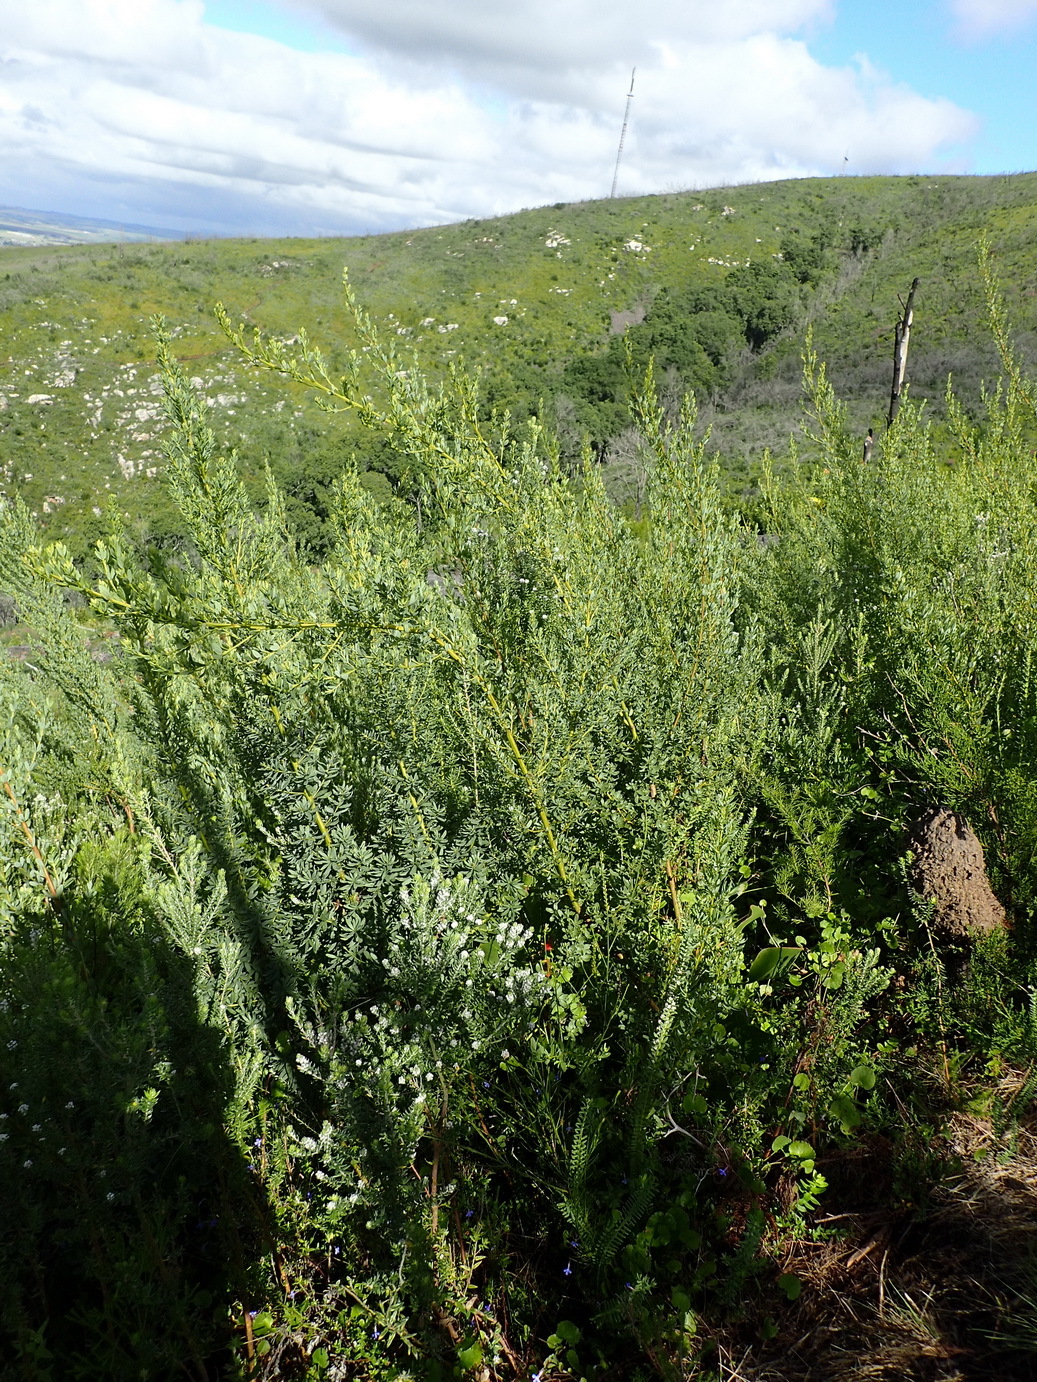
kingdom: Plantae
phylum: Tracheophyta
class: Magnoliopsida
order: Fabales
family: Fabaceae
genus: Cyclopia
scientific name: Cyclopia subternata
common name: Honeybush tea
